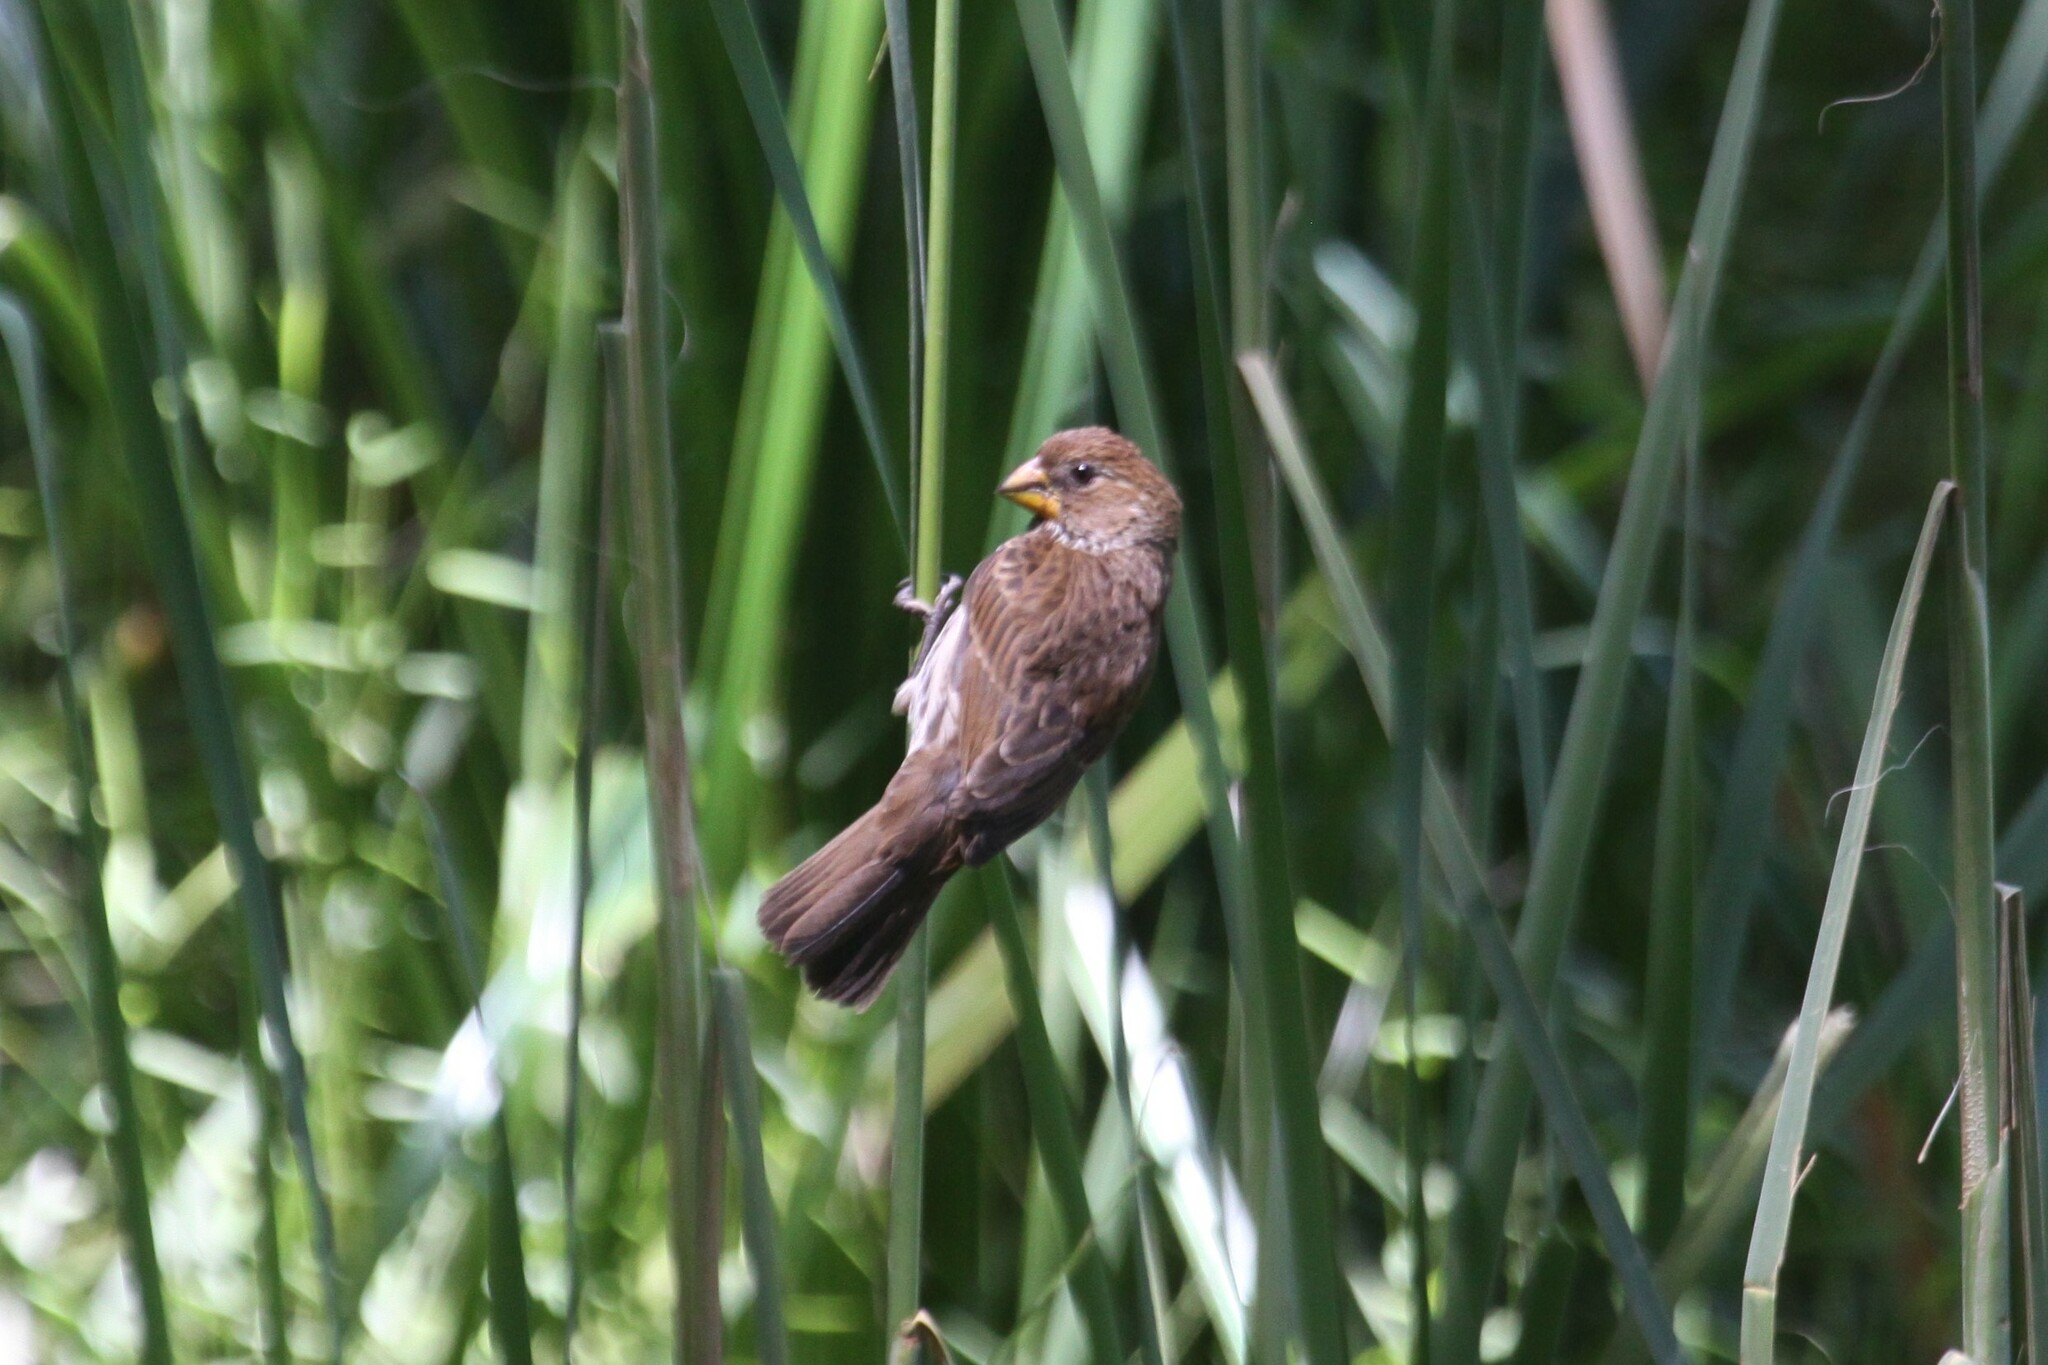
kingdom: Animalia
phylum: Chordata
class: Aves
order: Passeriformes
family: Ploceidae
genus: Amblyospiza
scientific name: Amblyospiza albifrons
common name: Thick-billed weaver
